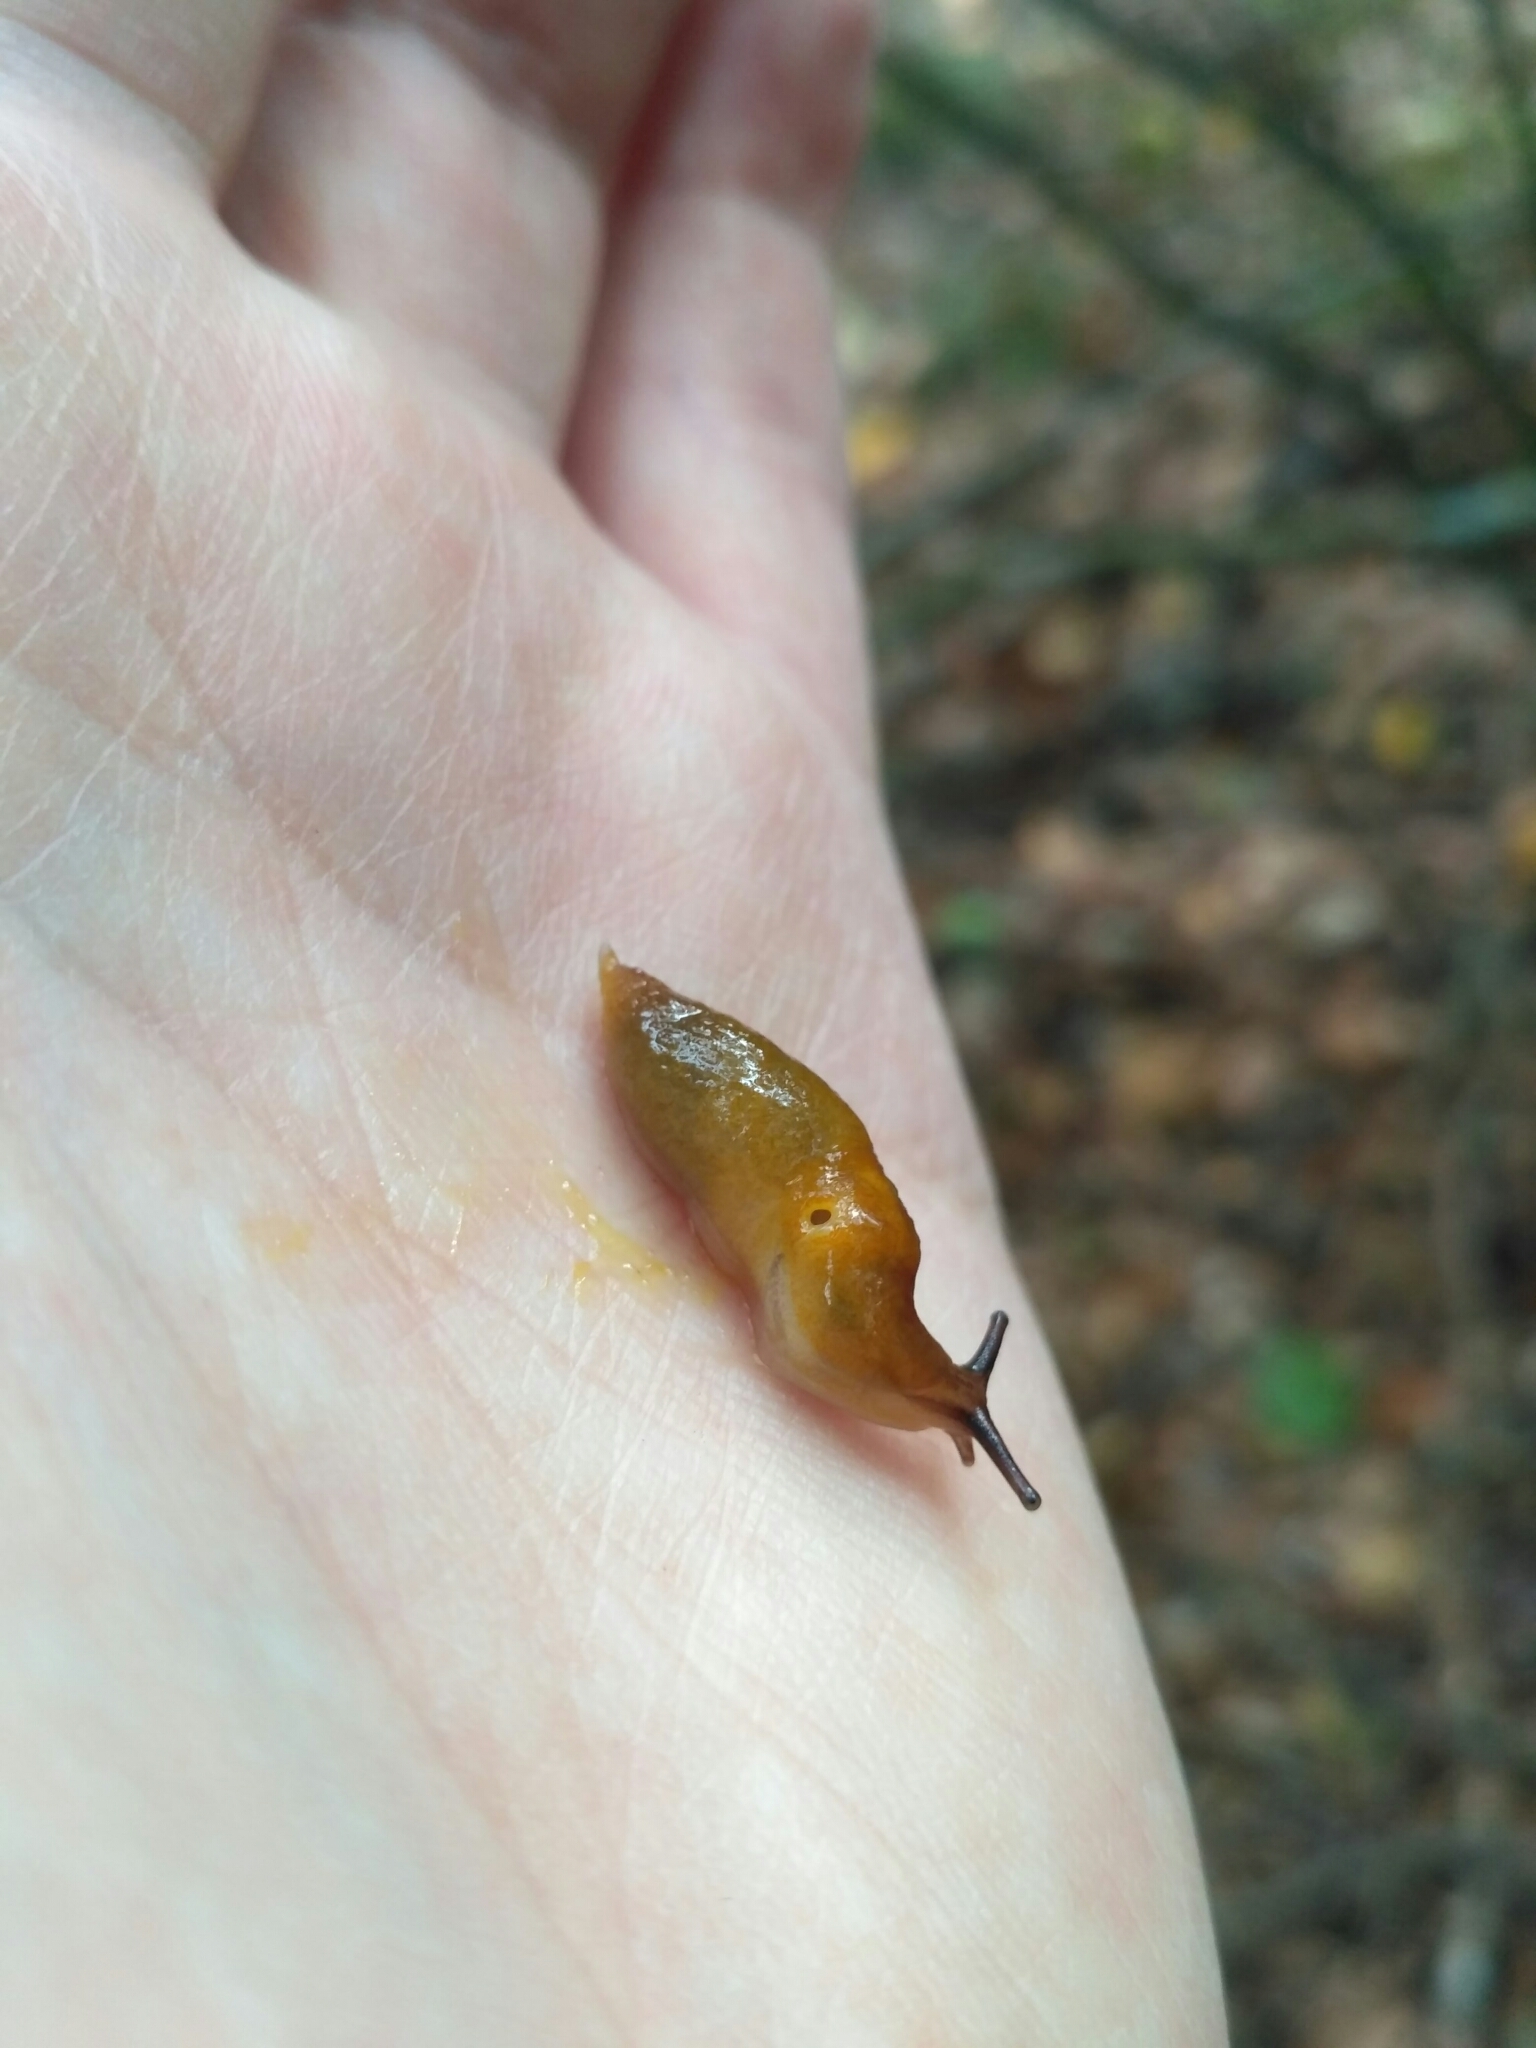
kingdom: Animalia
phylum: Mollusca
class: Gastropoda
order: Stylommatophora
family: Limacidae
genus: Malacolimax
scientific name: Malacolimax tenellus
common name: Lemon slug
